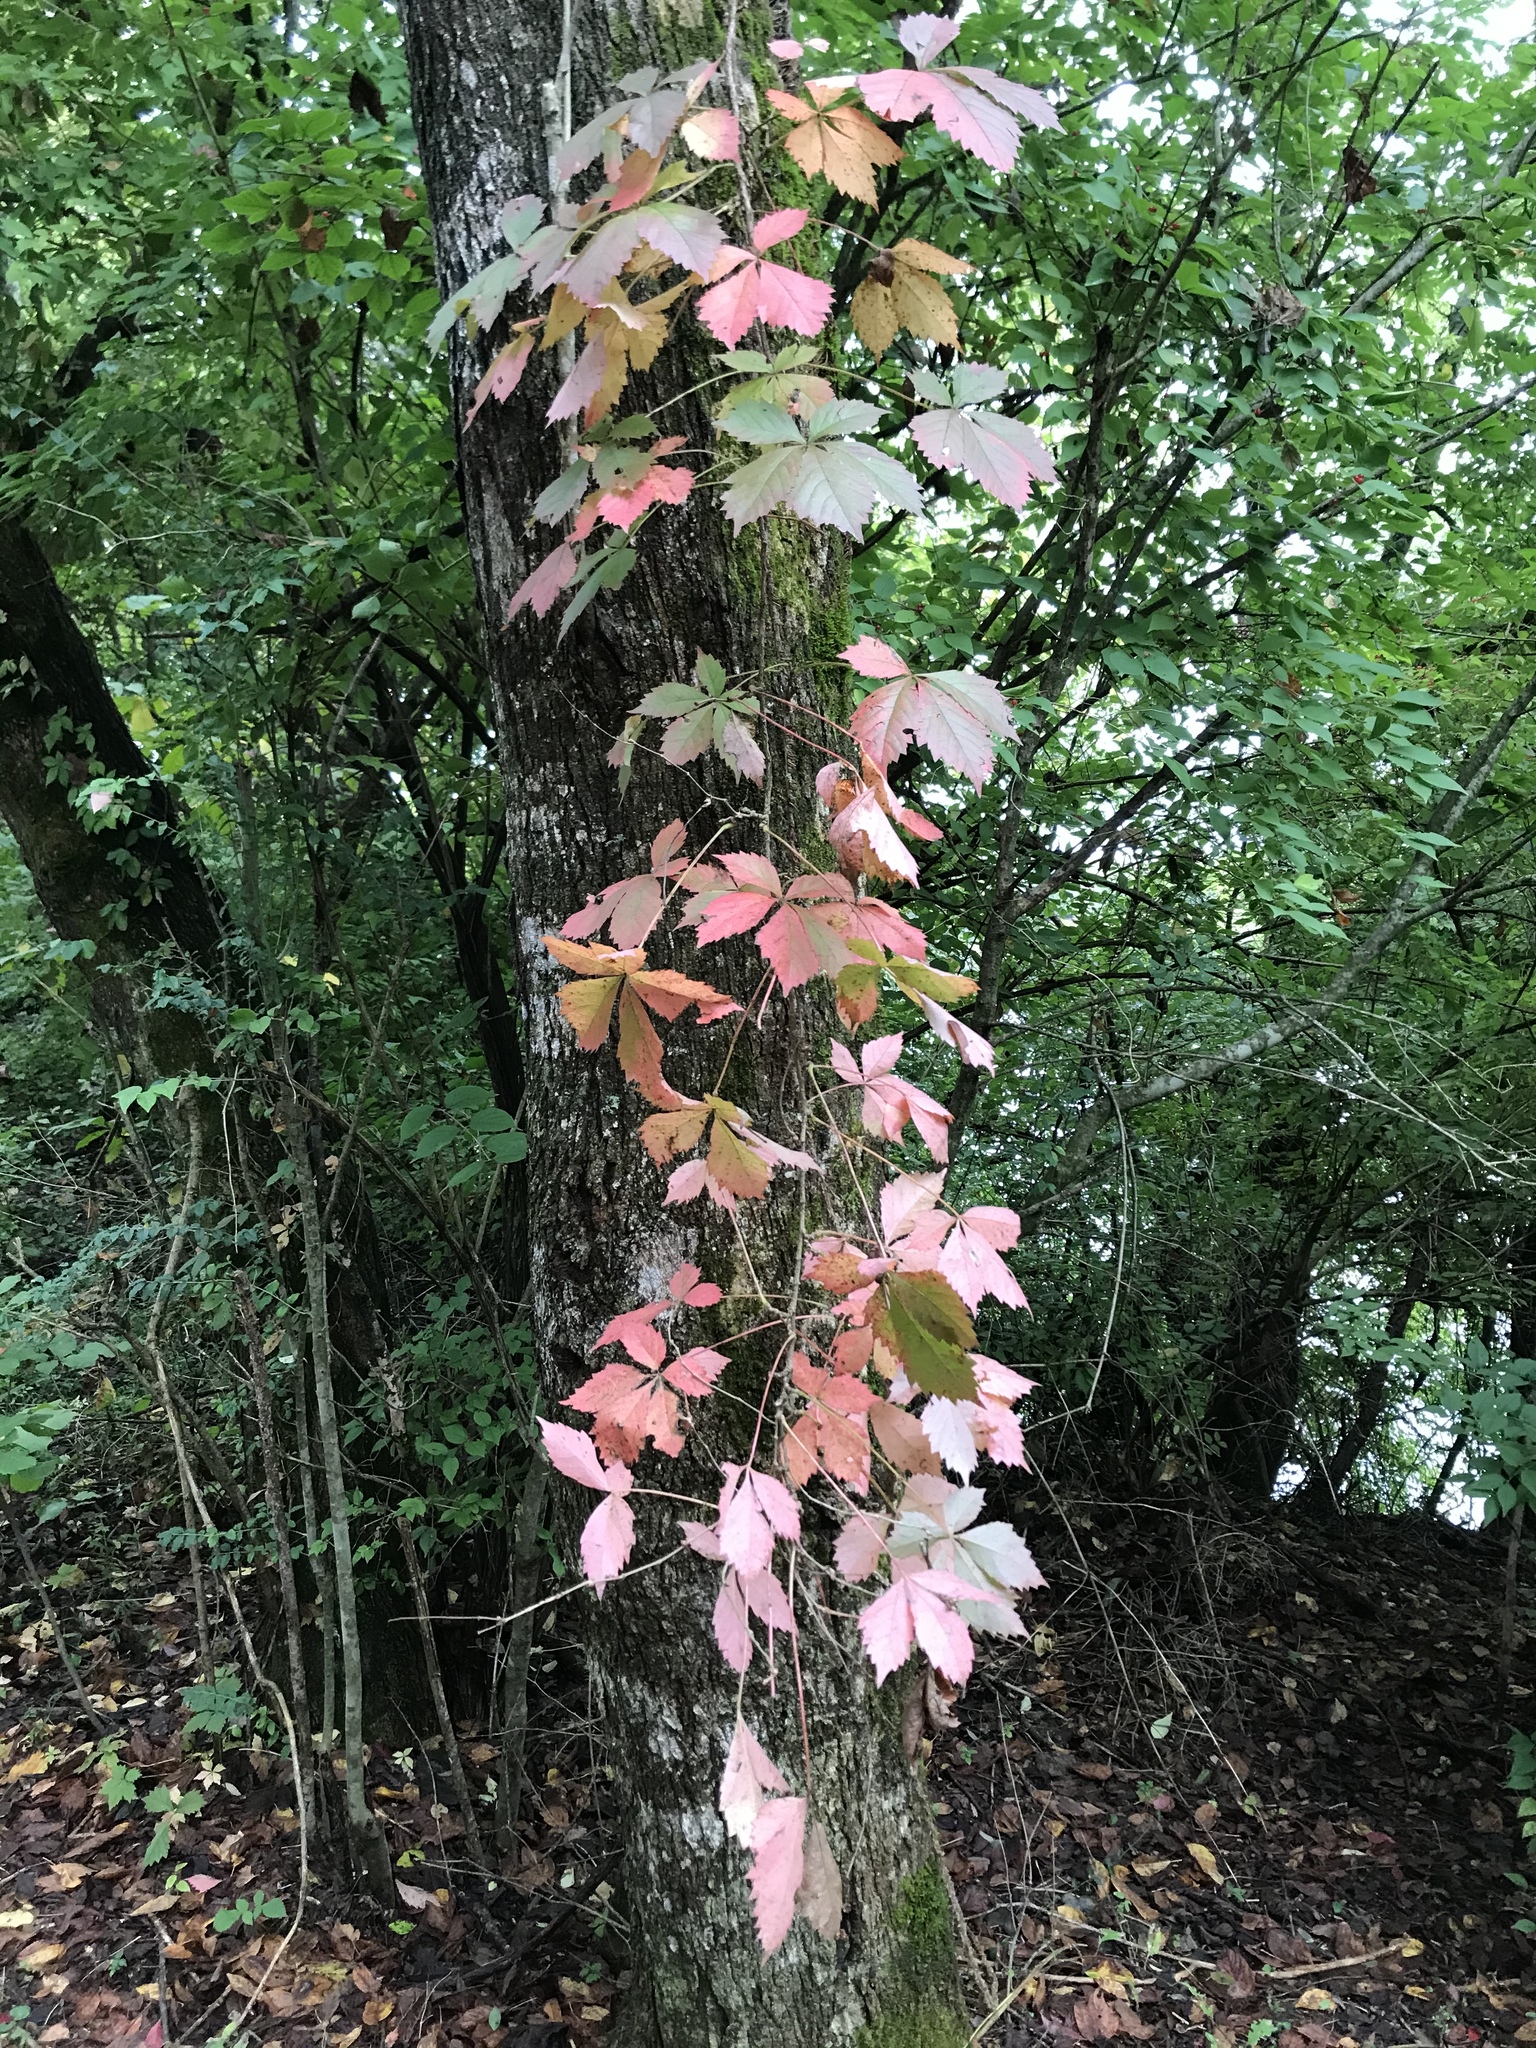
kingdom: Plantae
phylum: Tracheophyta
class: Magnoliopsida
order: Vitales
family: Vitaceae
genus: Parthenocissus
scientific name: Parthenocissus quinquefolia
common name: Virginia-creeper
